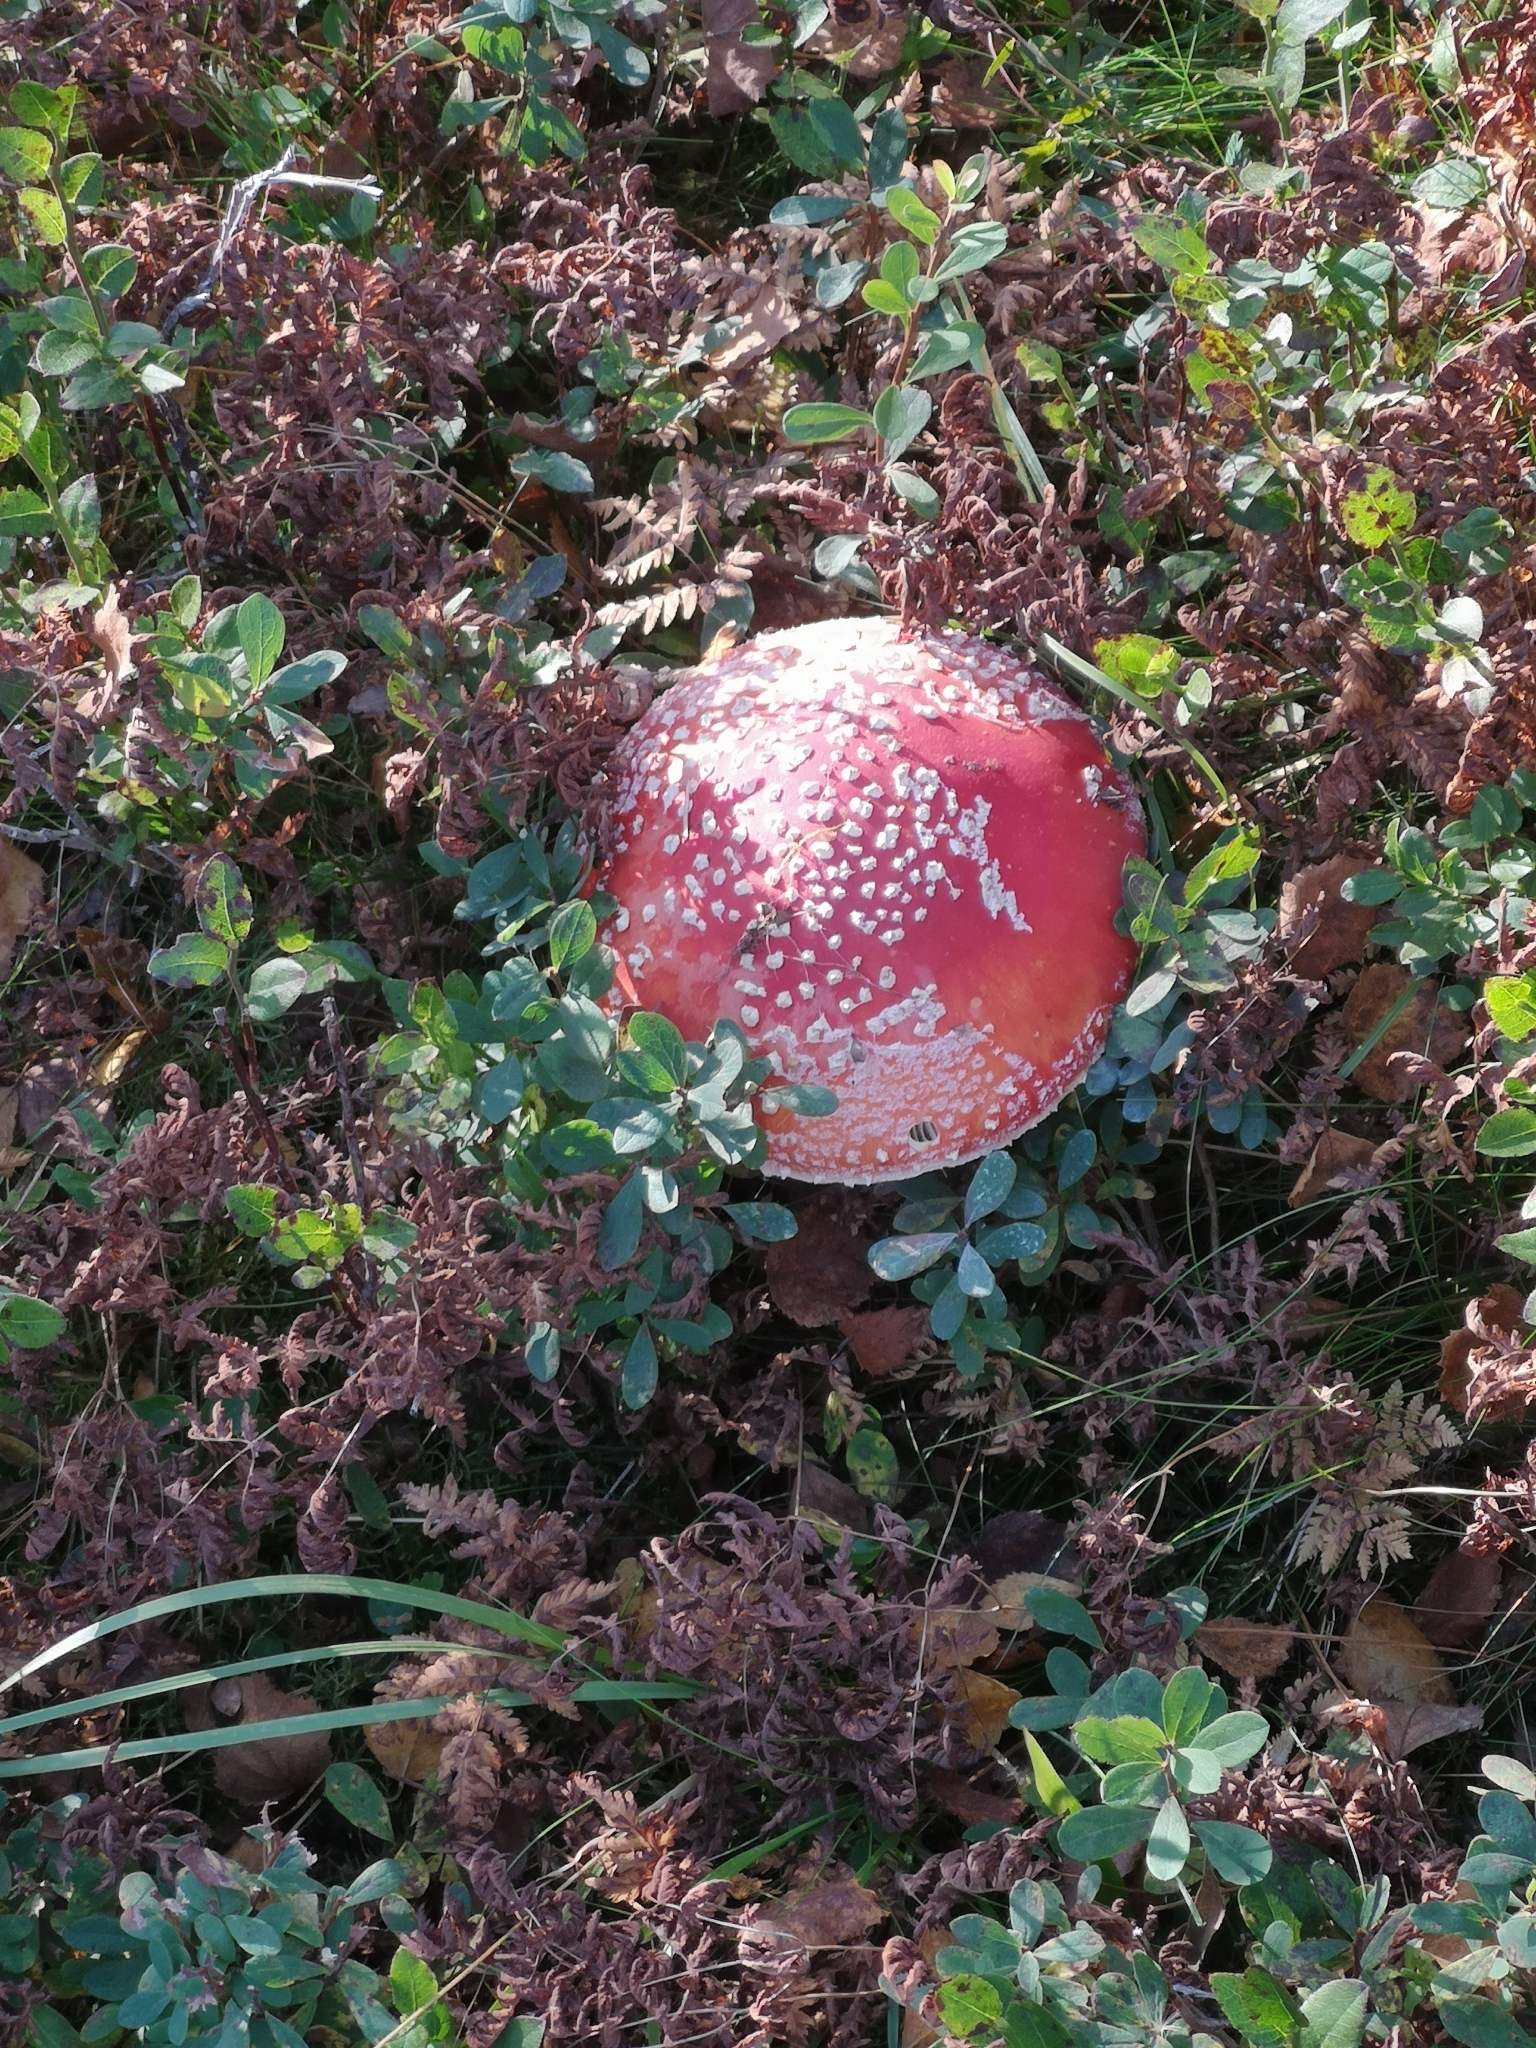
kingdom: Fungi
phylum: Basidiomycota
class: Agaricomycetes
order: Agaricales
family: Amanitaceae
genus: Amanita
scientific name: Amanita muscaria
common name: Fly agaric
